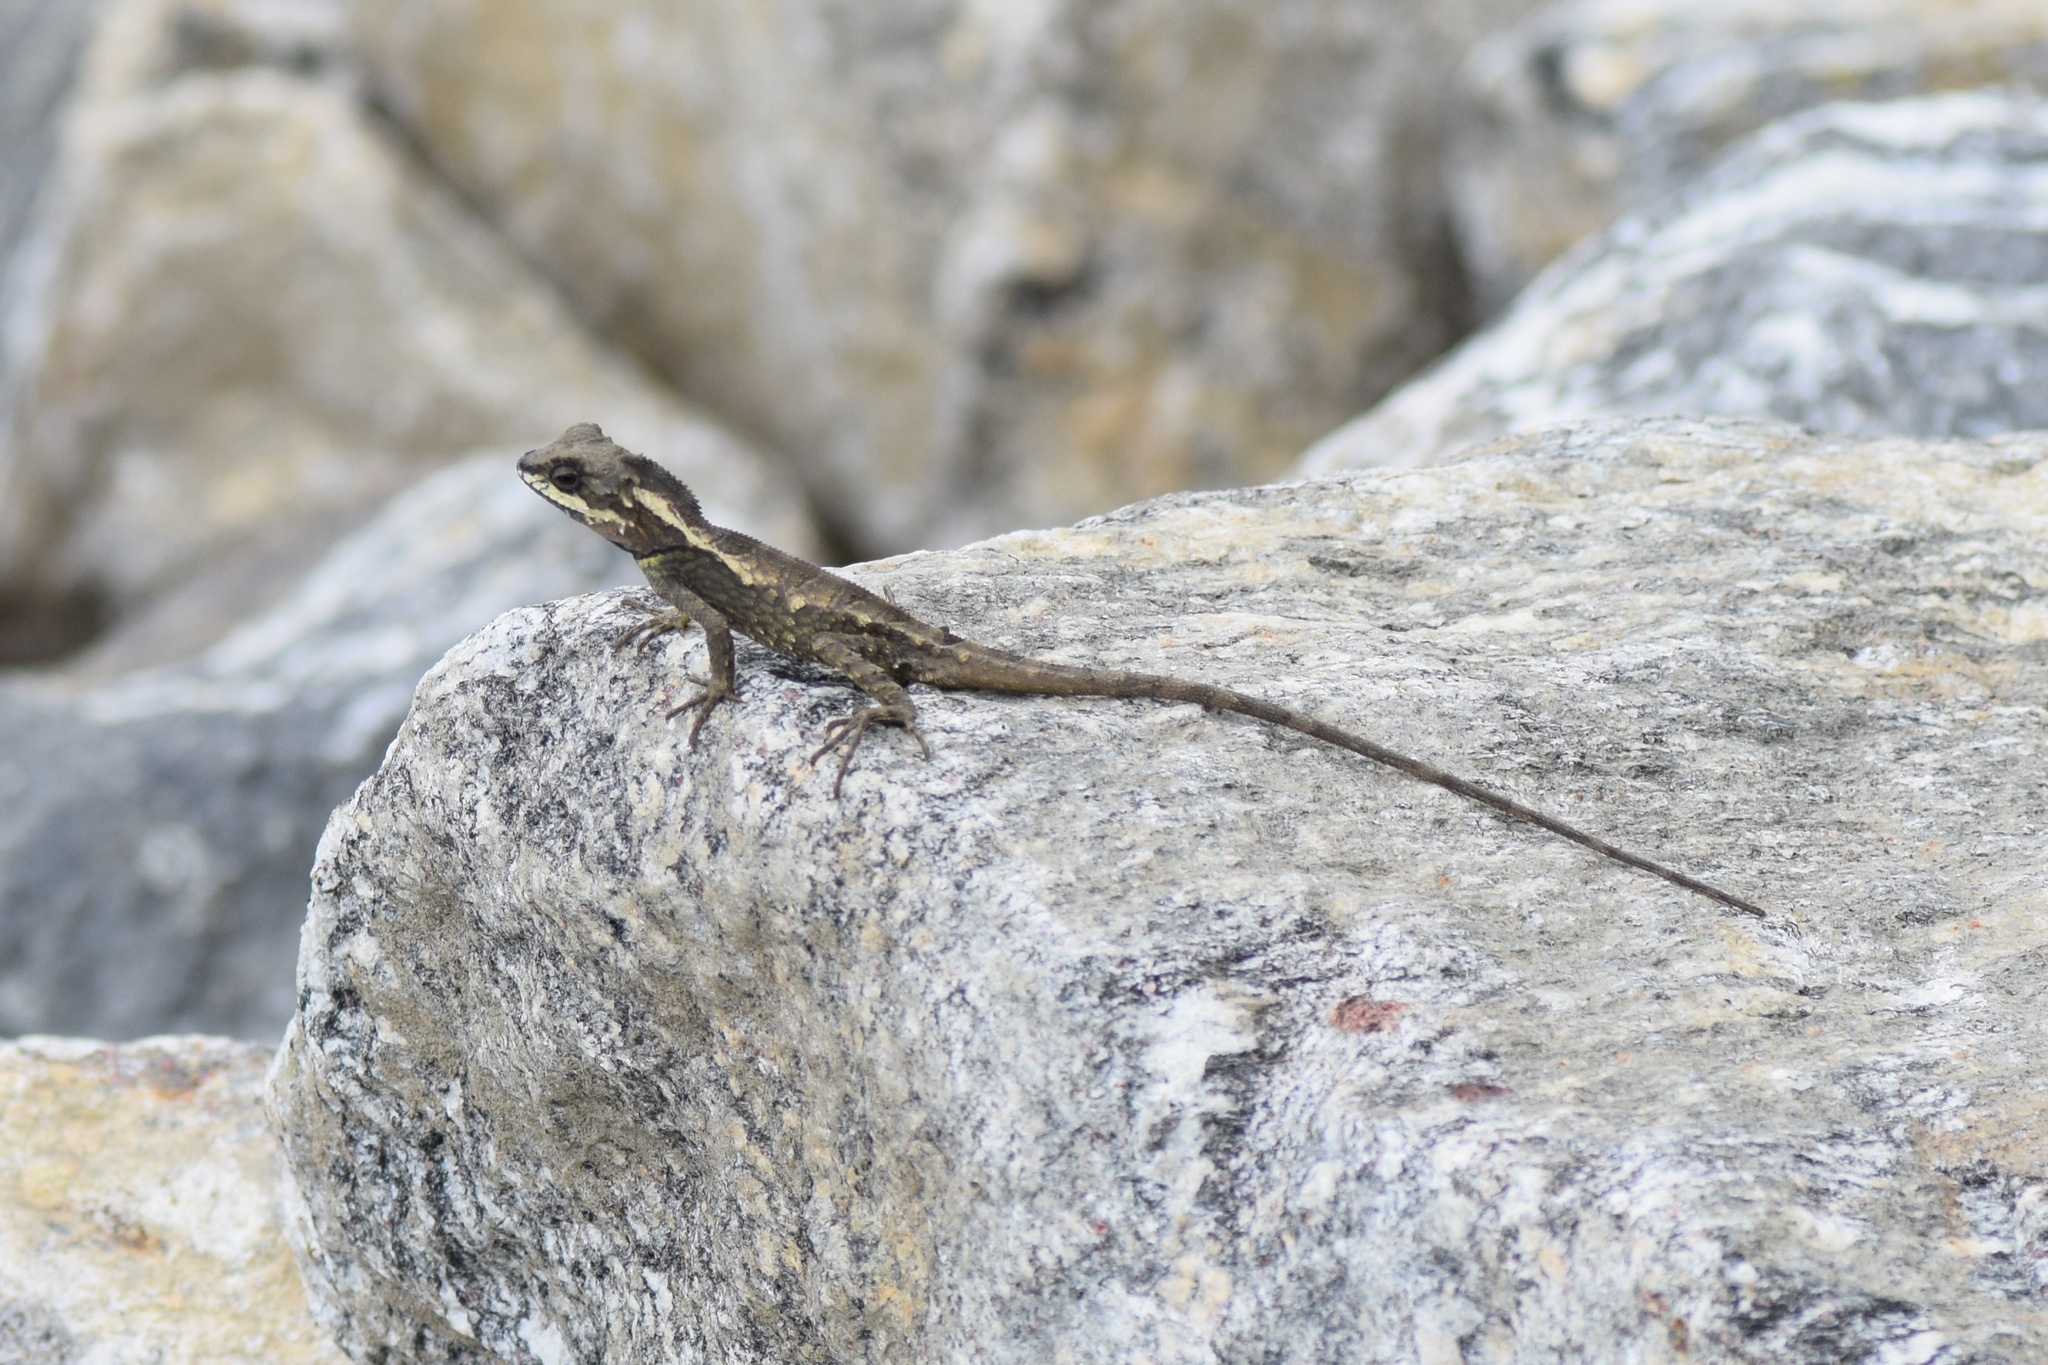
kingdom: Animalia
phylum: Chordata
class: Squamata
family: Agamidae
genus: Japalura
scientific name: Japalura variegata
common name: East himalayan mountain lizard
